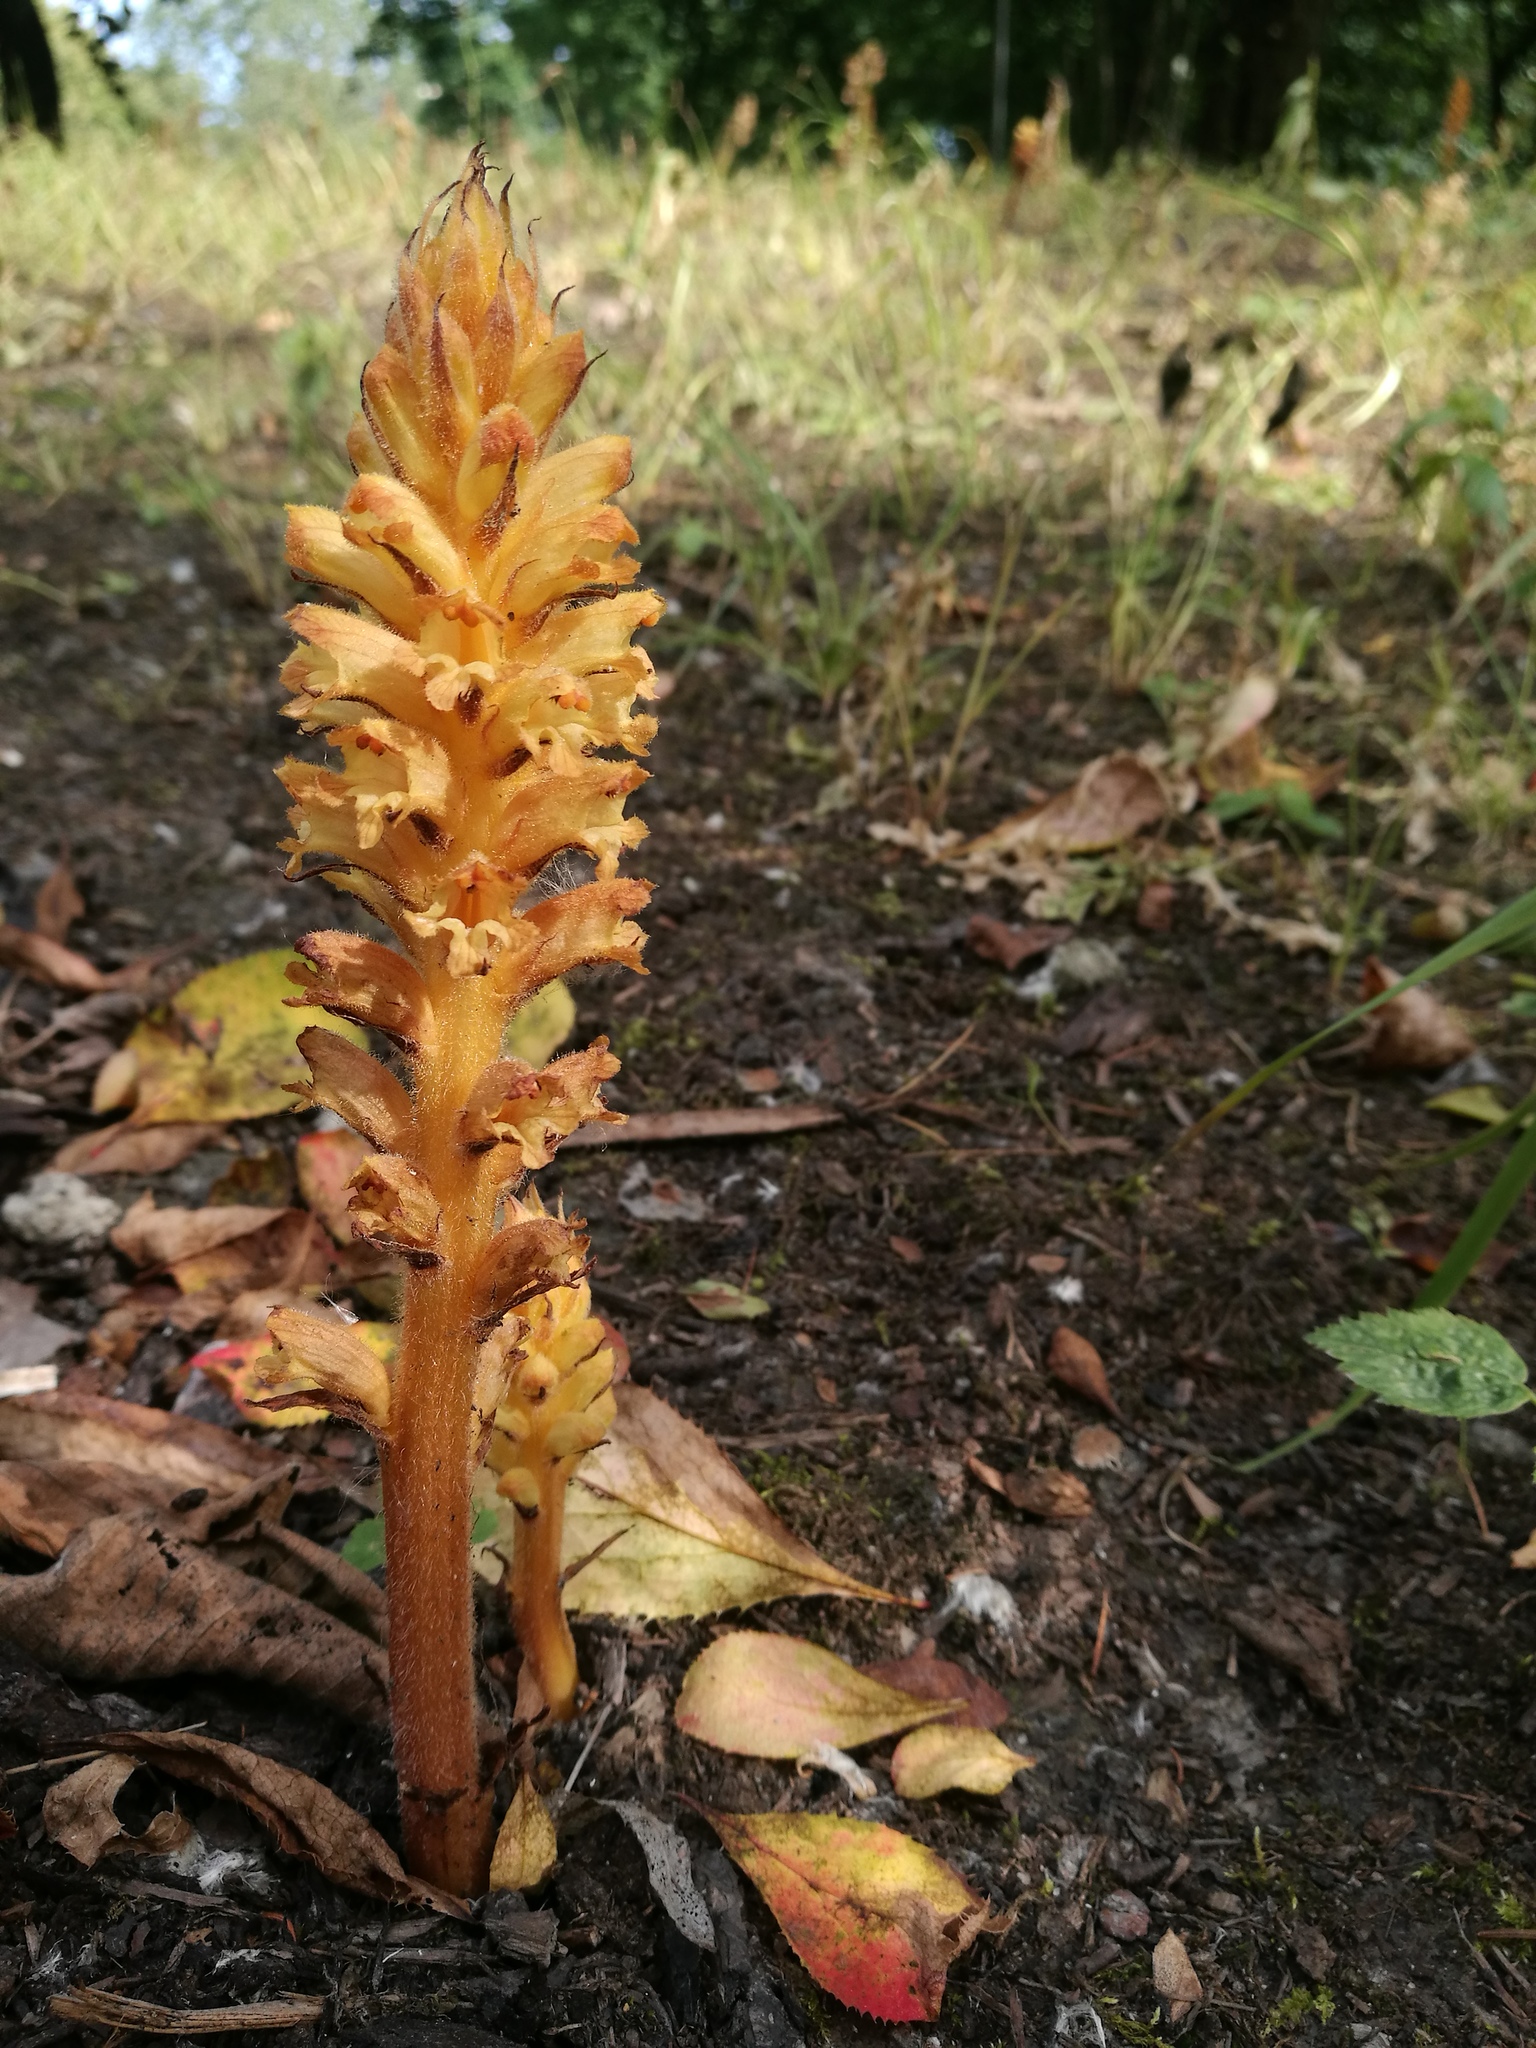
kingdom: Plantae
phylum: Tracheophyta
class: Magnoliopsida
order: Lamiales
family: Orobanchaceae
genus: Orobanche
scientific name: Orobanche lucorum
